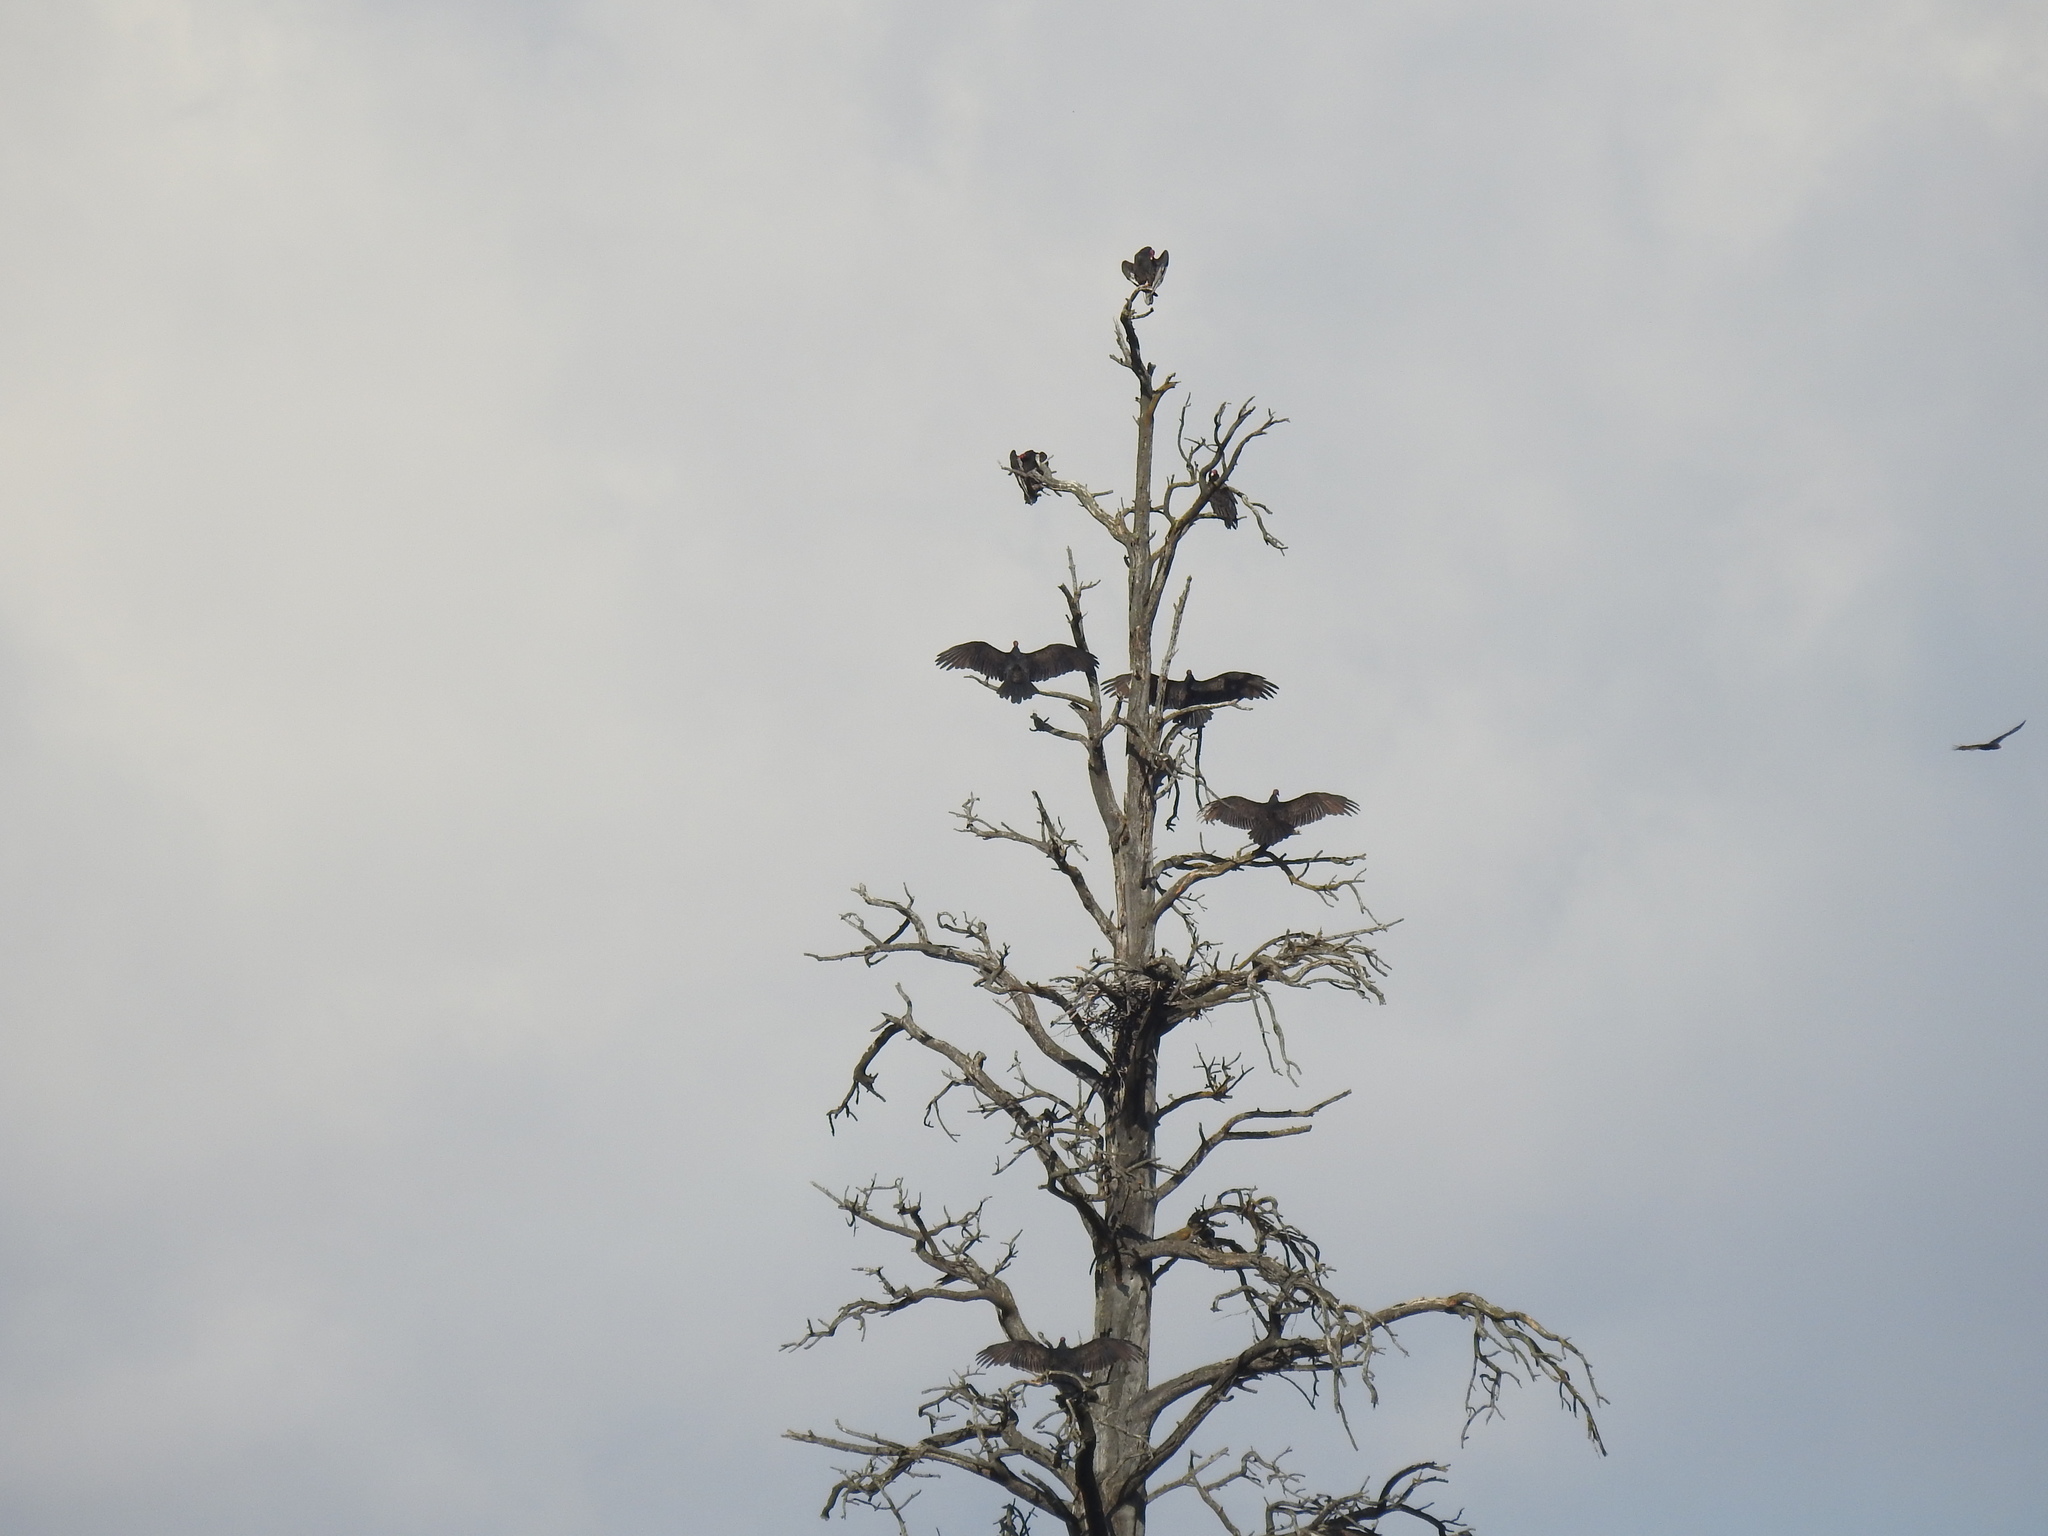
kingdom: Animalia
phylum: Chordata
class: Aves
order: Accipitriformes
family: Cathartidae
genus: Cathartes
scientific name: Cathartes aura
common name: Turkey vulture
